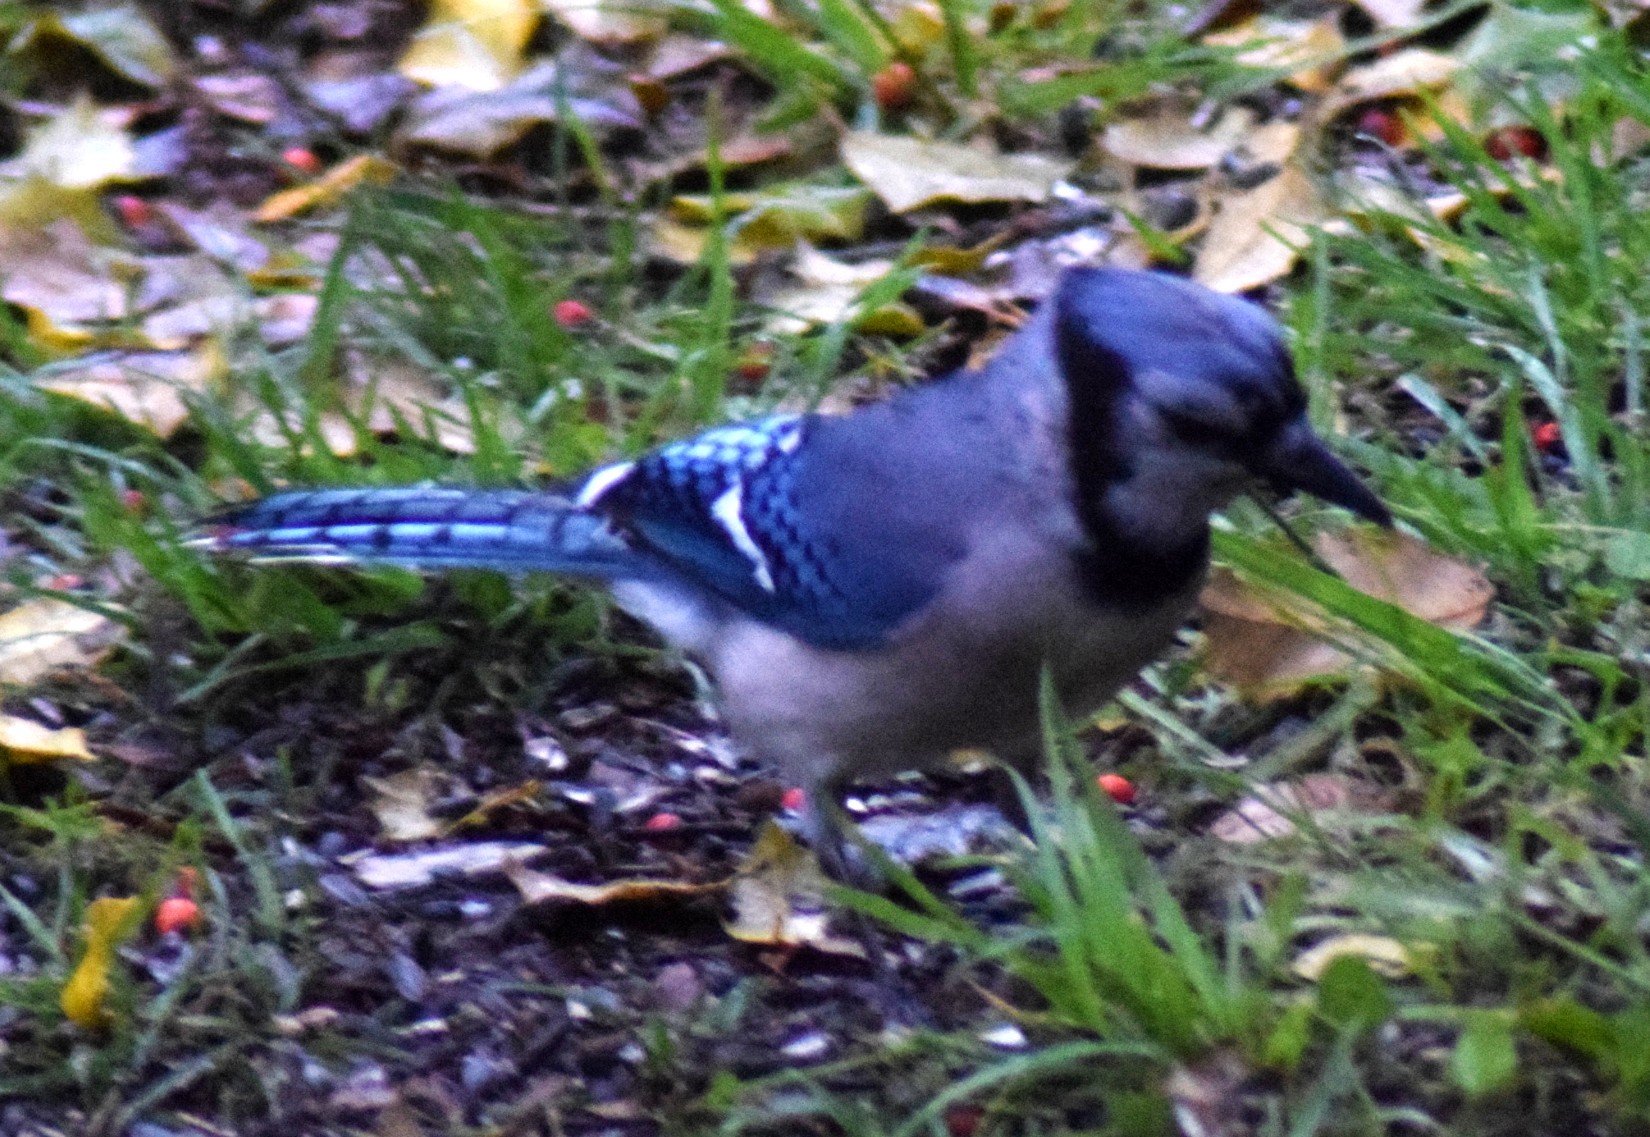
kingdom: Animalia
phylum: Chordata
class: Aves
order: Passeriformes
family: Corvidae
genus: Cyanocitta
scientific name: Cyanocitta cristata
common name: Blue jay
